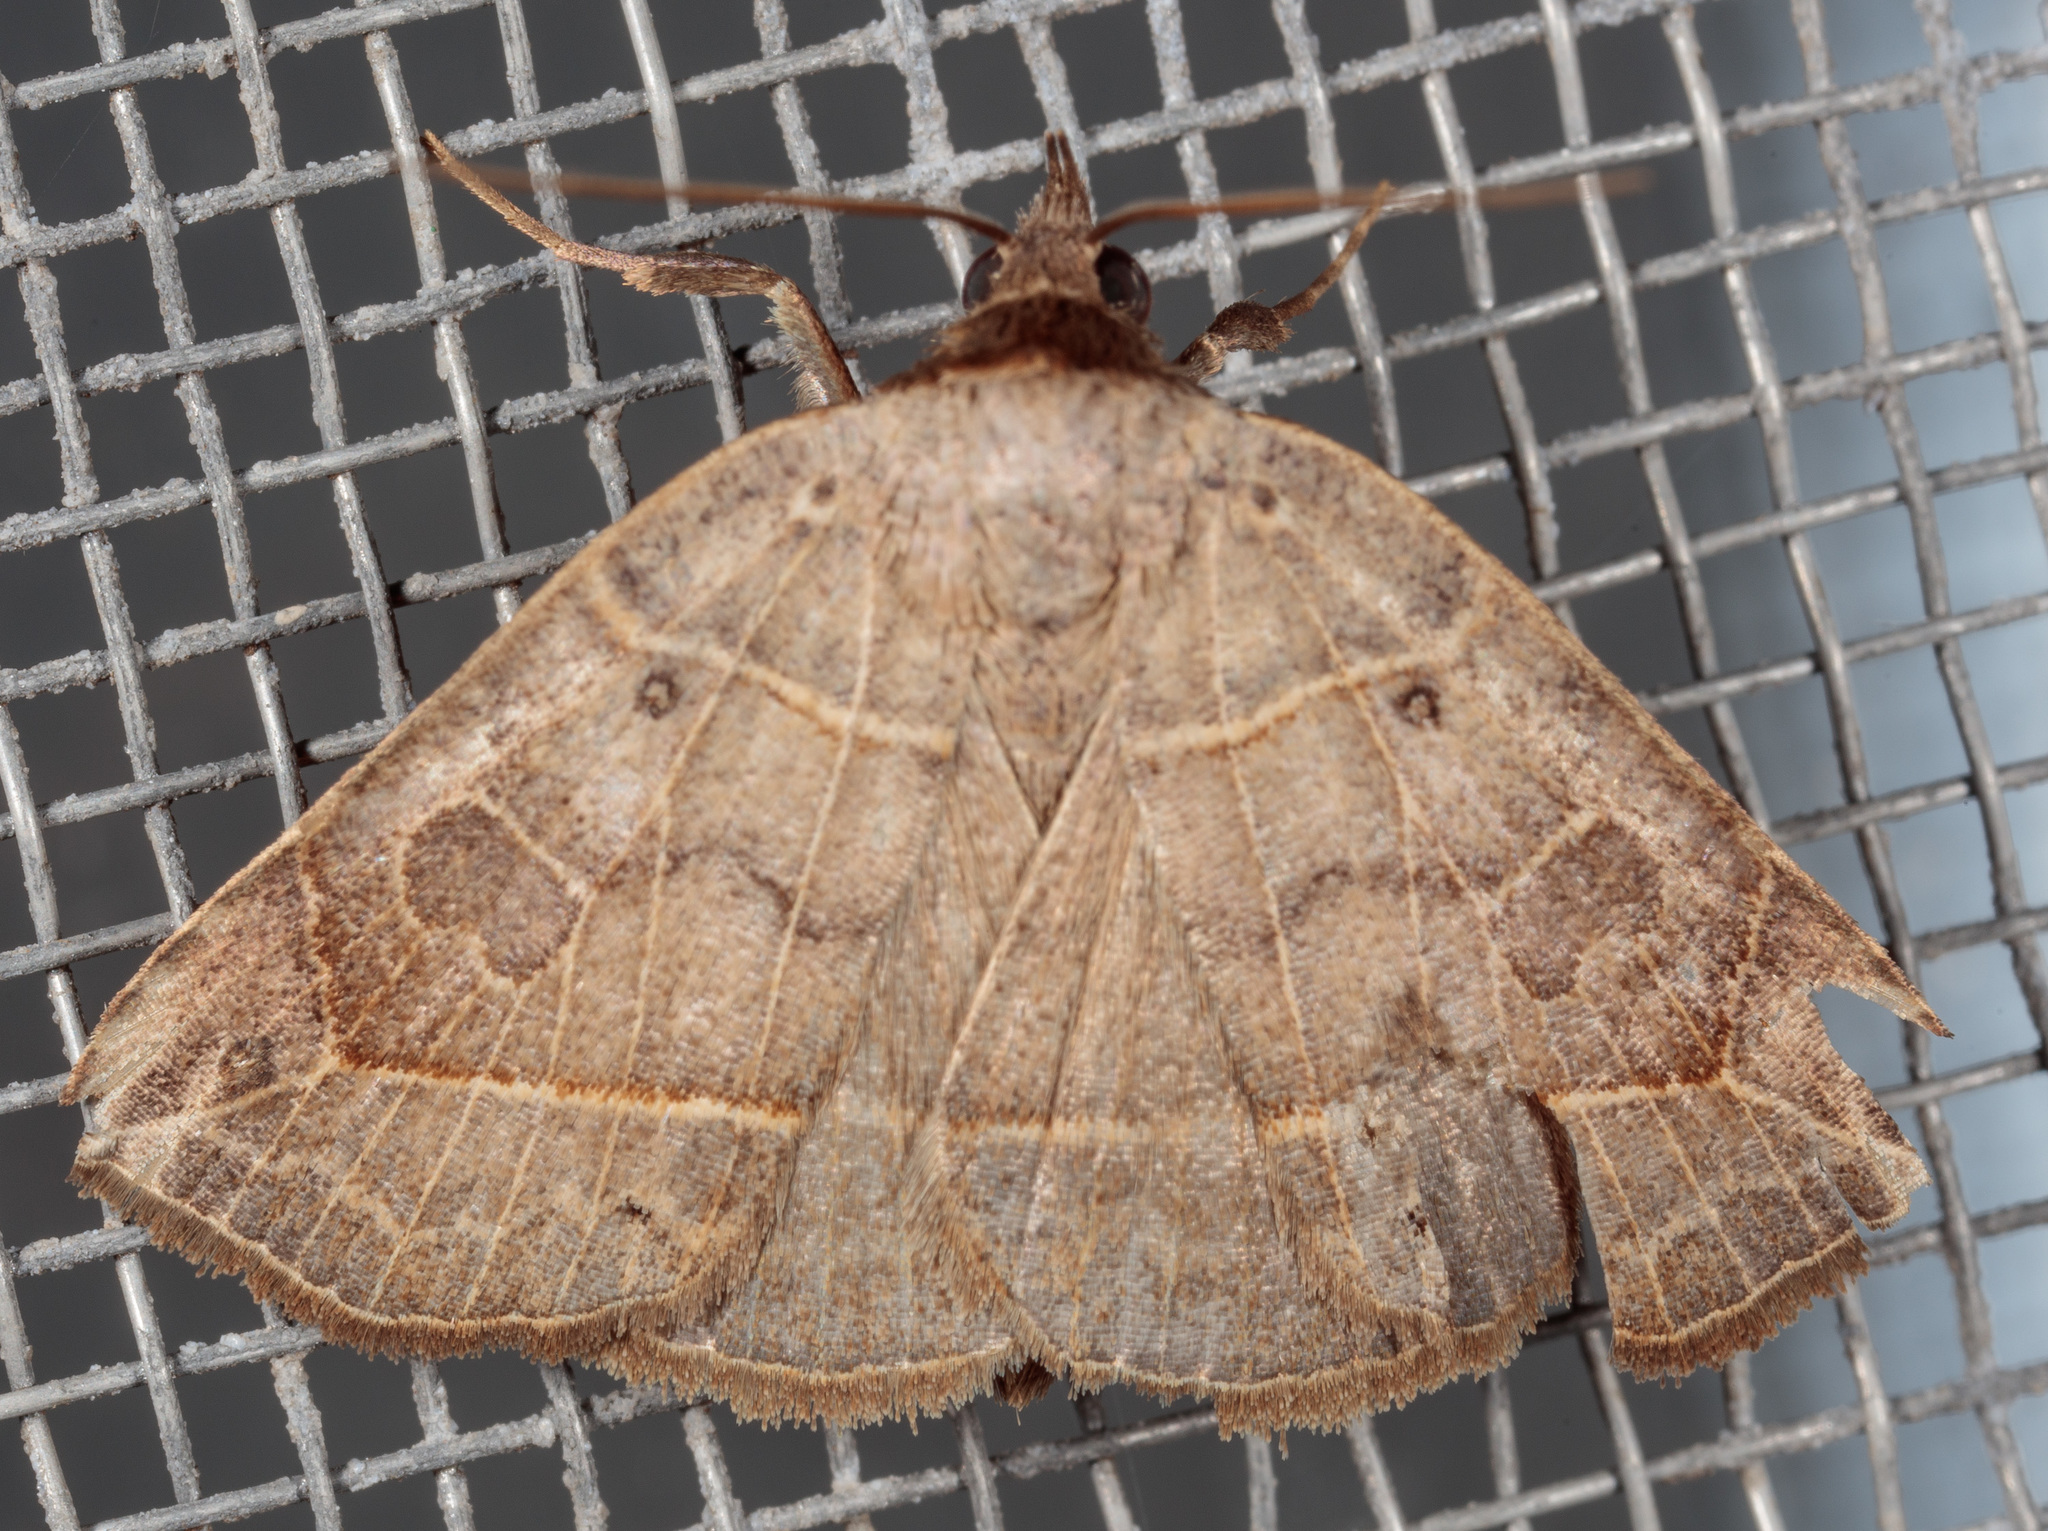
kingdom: Animalia
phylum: Arthropoda
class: Insecta
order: Lepidoptera
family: Erebidae
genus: Isogona
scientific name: Isogona tenuis
